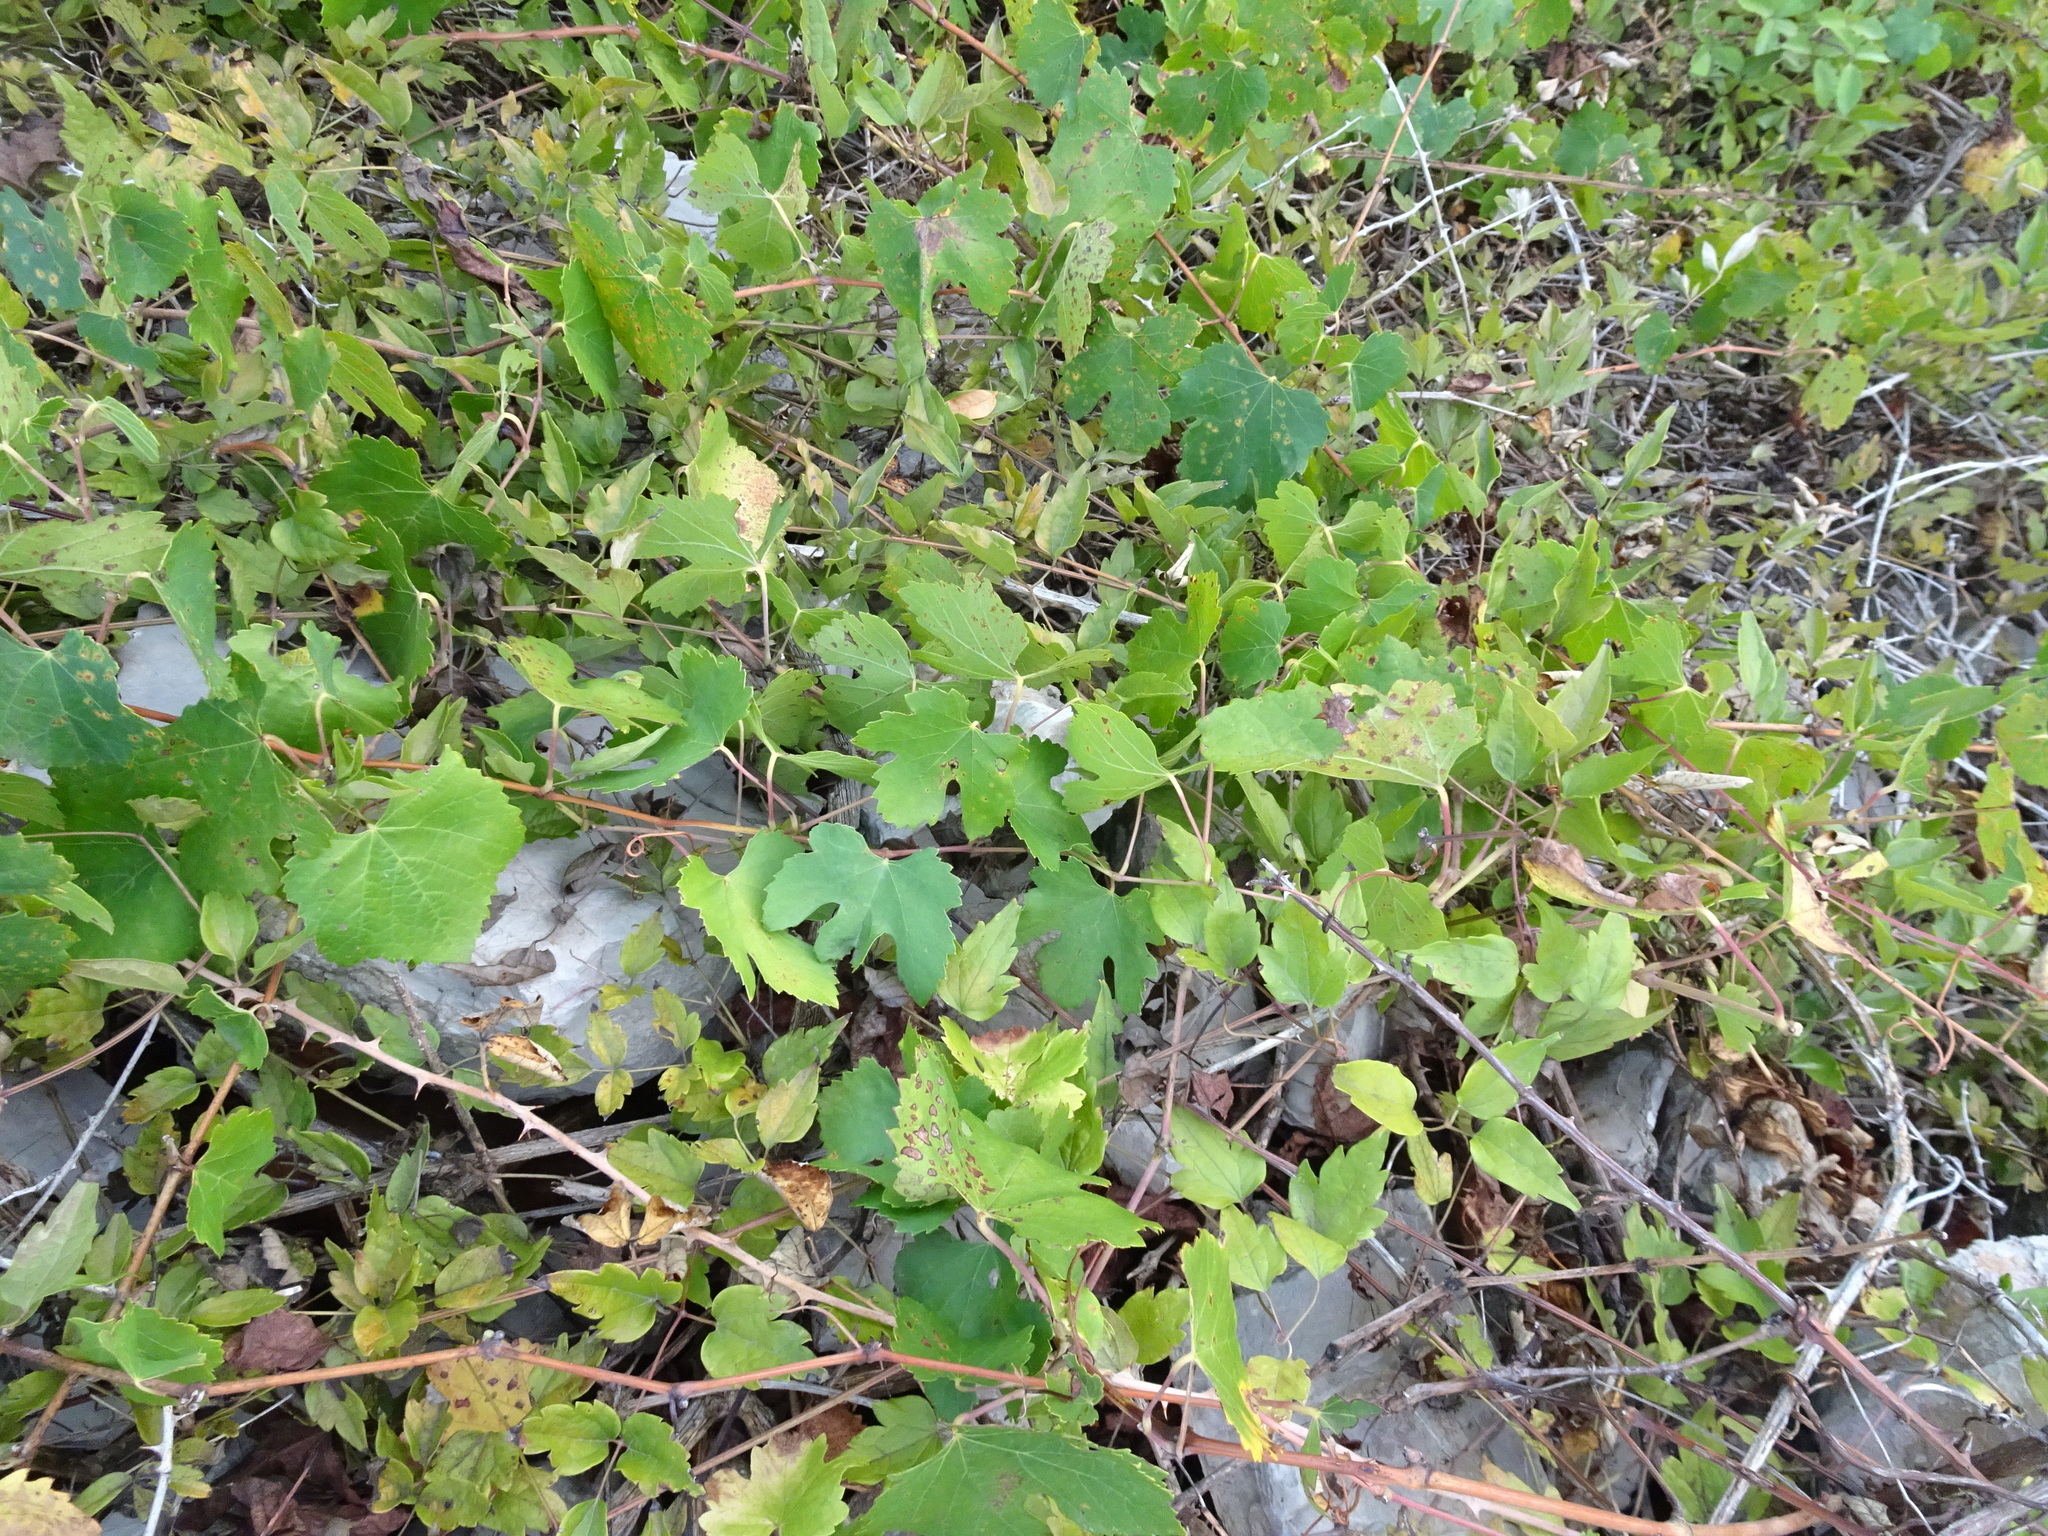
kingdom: Plantae
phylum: Tracheophyta
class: Magnoliopsida
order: Vitales
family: Vitaceae
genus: Vitis
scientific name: Vitis gmelinii
